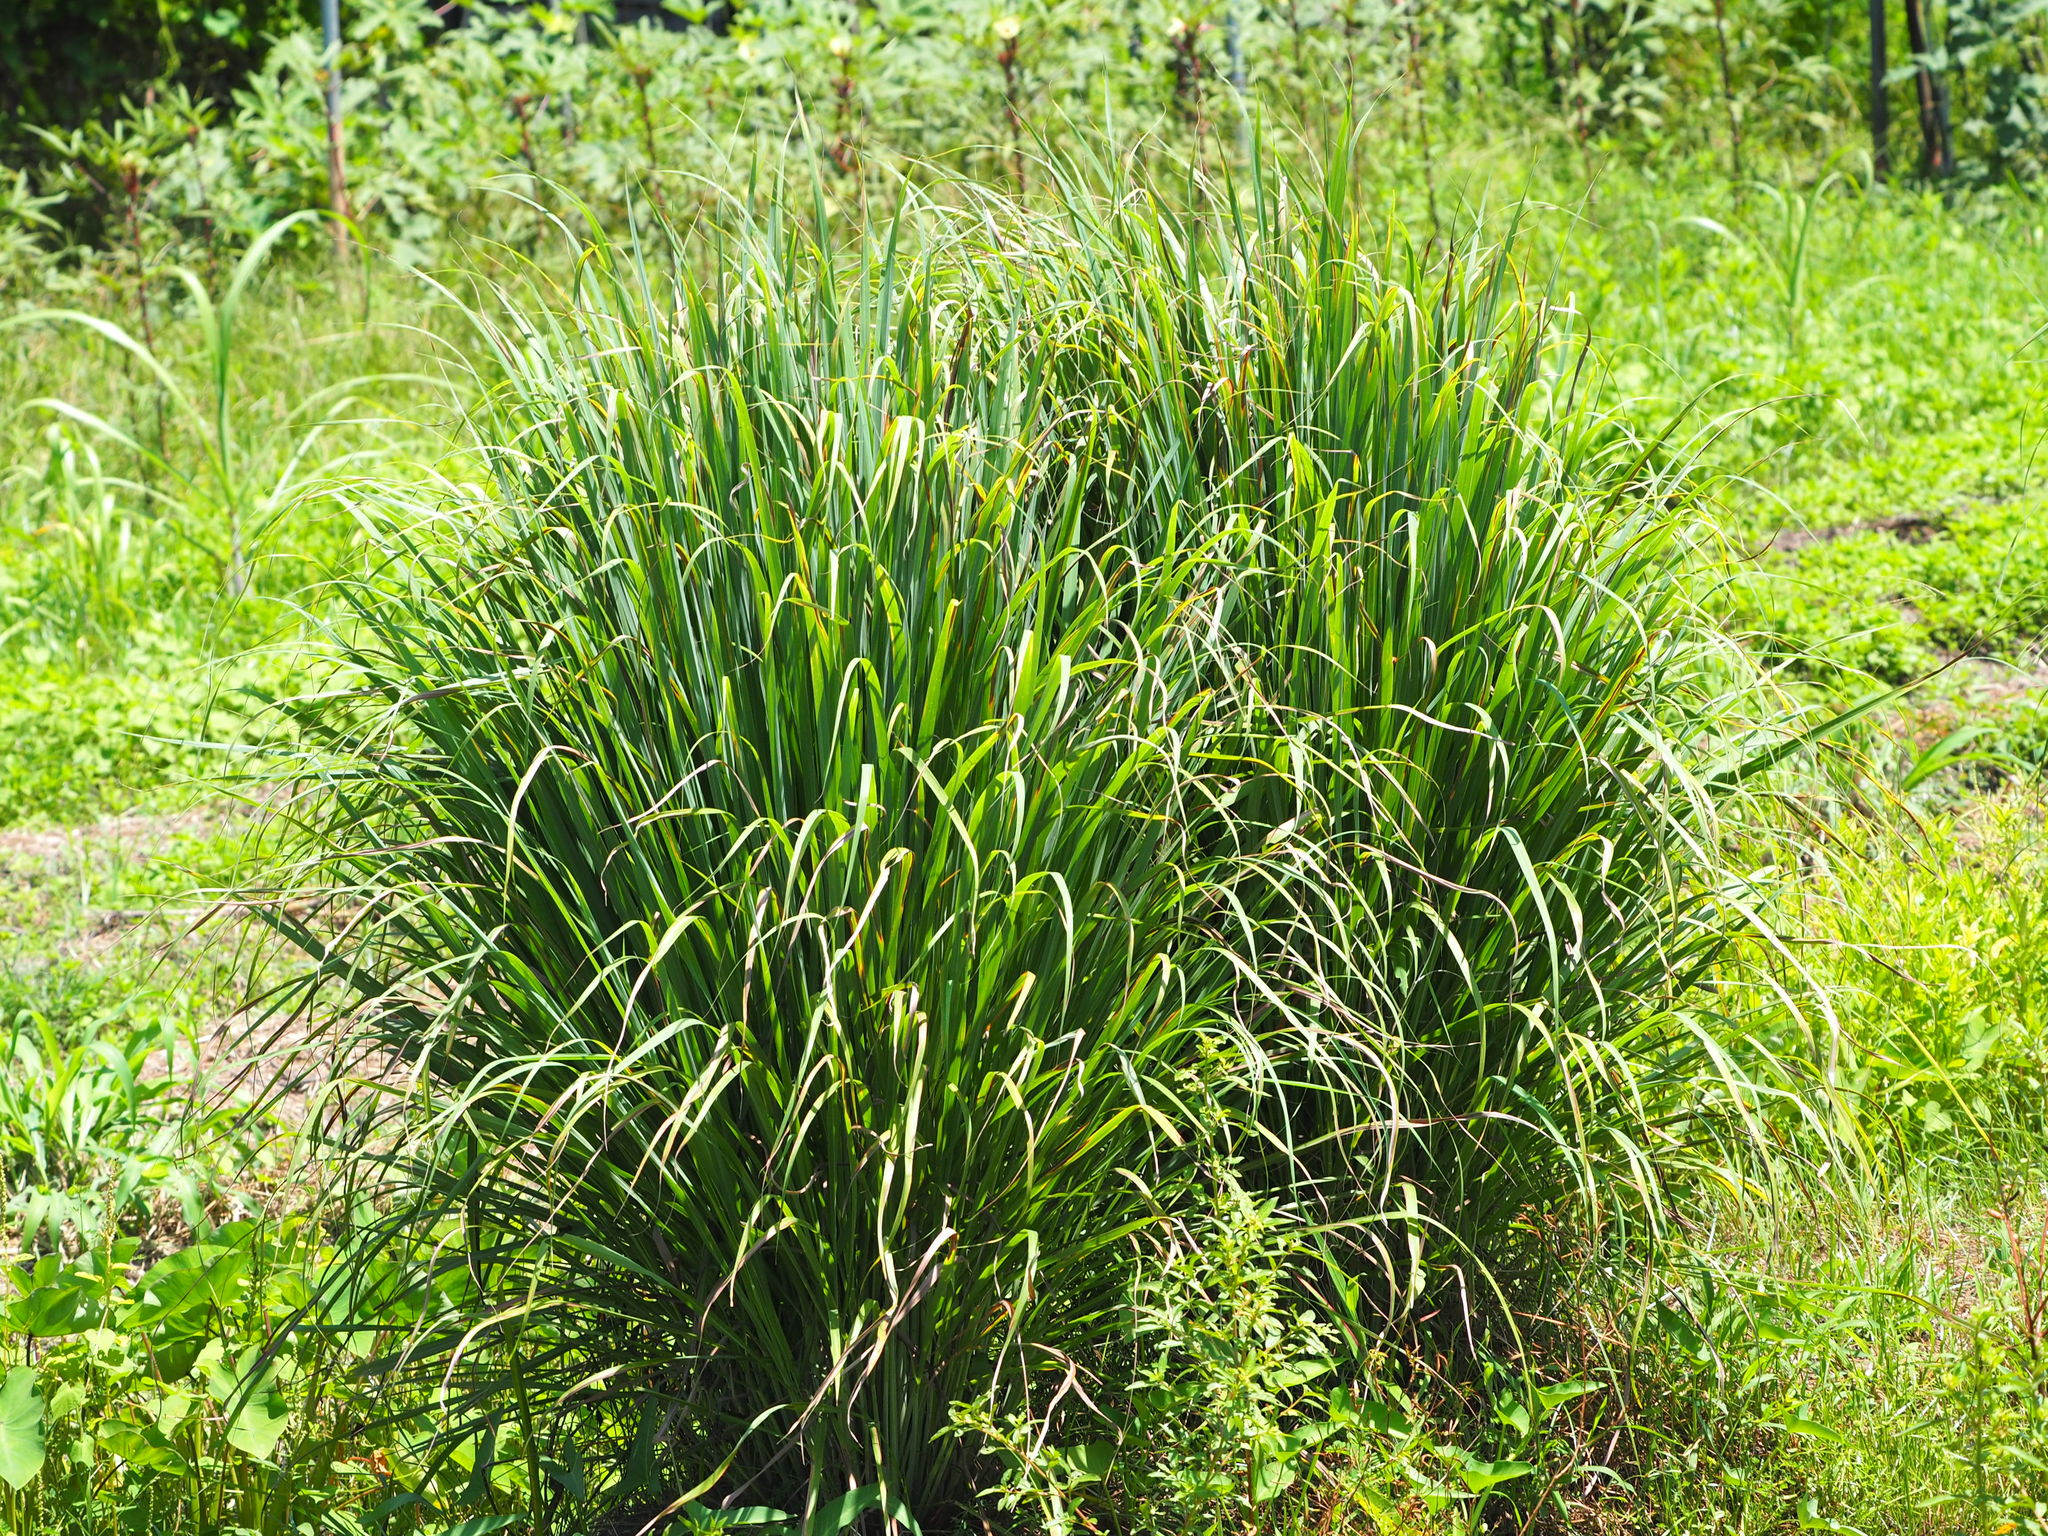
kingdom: Plantae
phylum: Tracheophyta
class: Liliopsida
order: Poales
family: Poaceae
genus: Cymbopogon
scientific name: Cymbopogon nardus
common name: Giant turpentine grass
